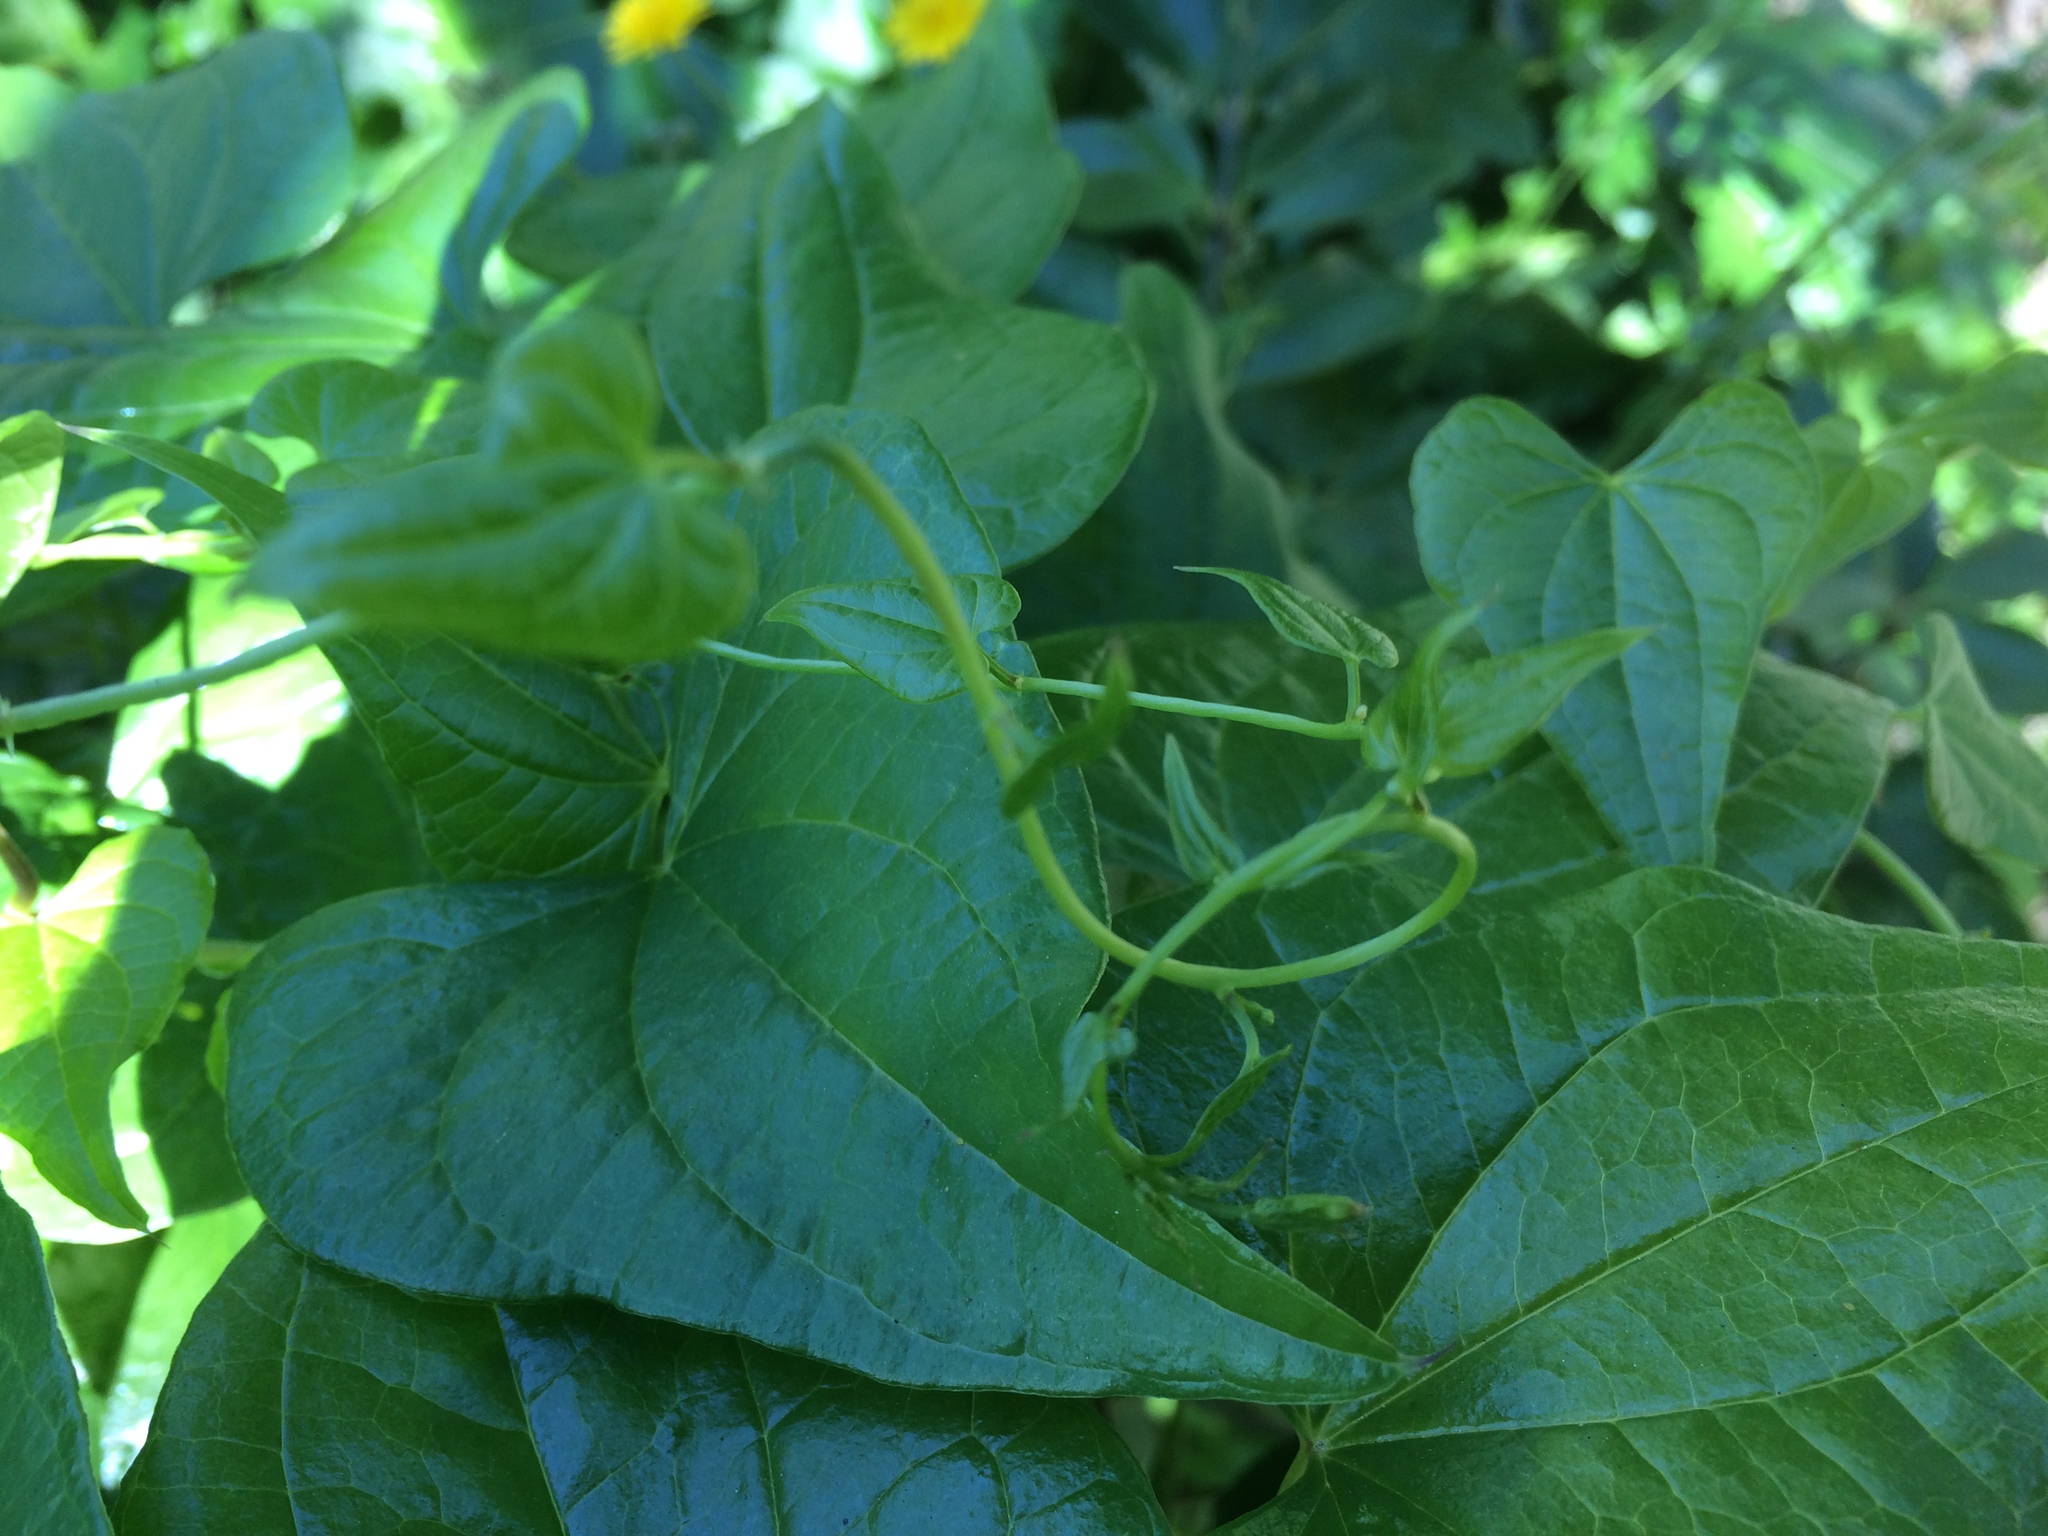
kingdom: Plantae
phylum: Tracheophyta
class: Liliopsida
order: Dioscoreales
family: Dioscoreaceae
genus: Dioscorea
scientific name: Dioscorea communis
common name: Black-bindweed
